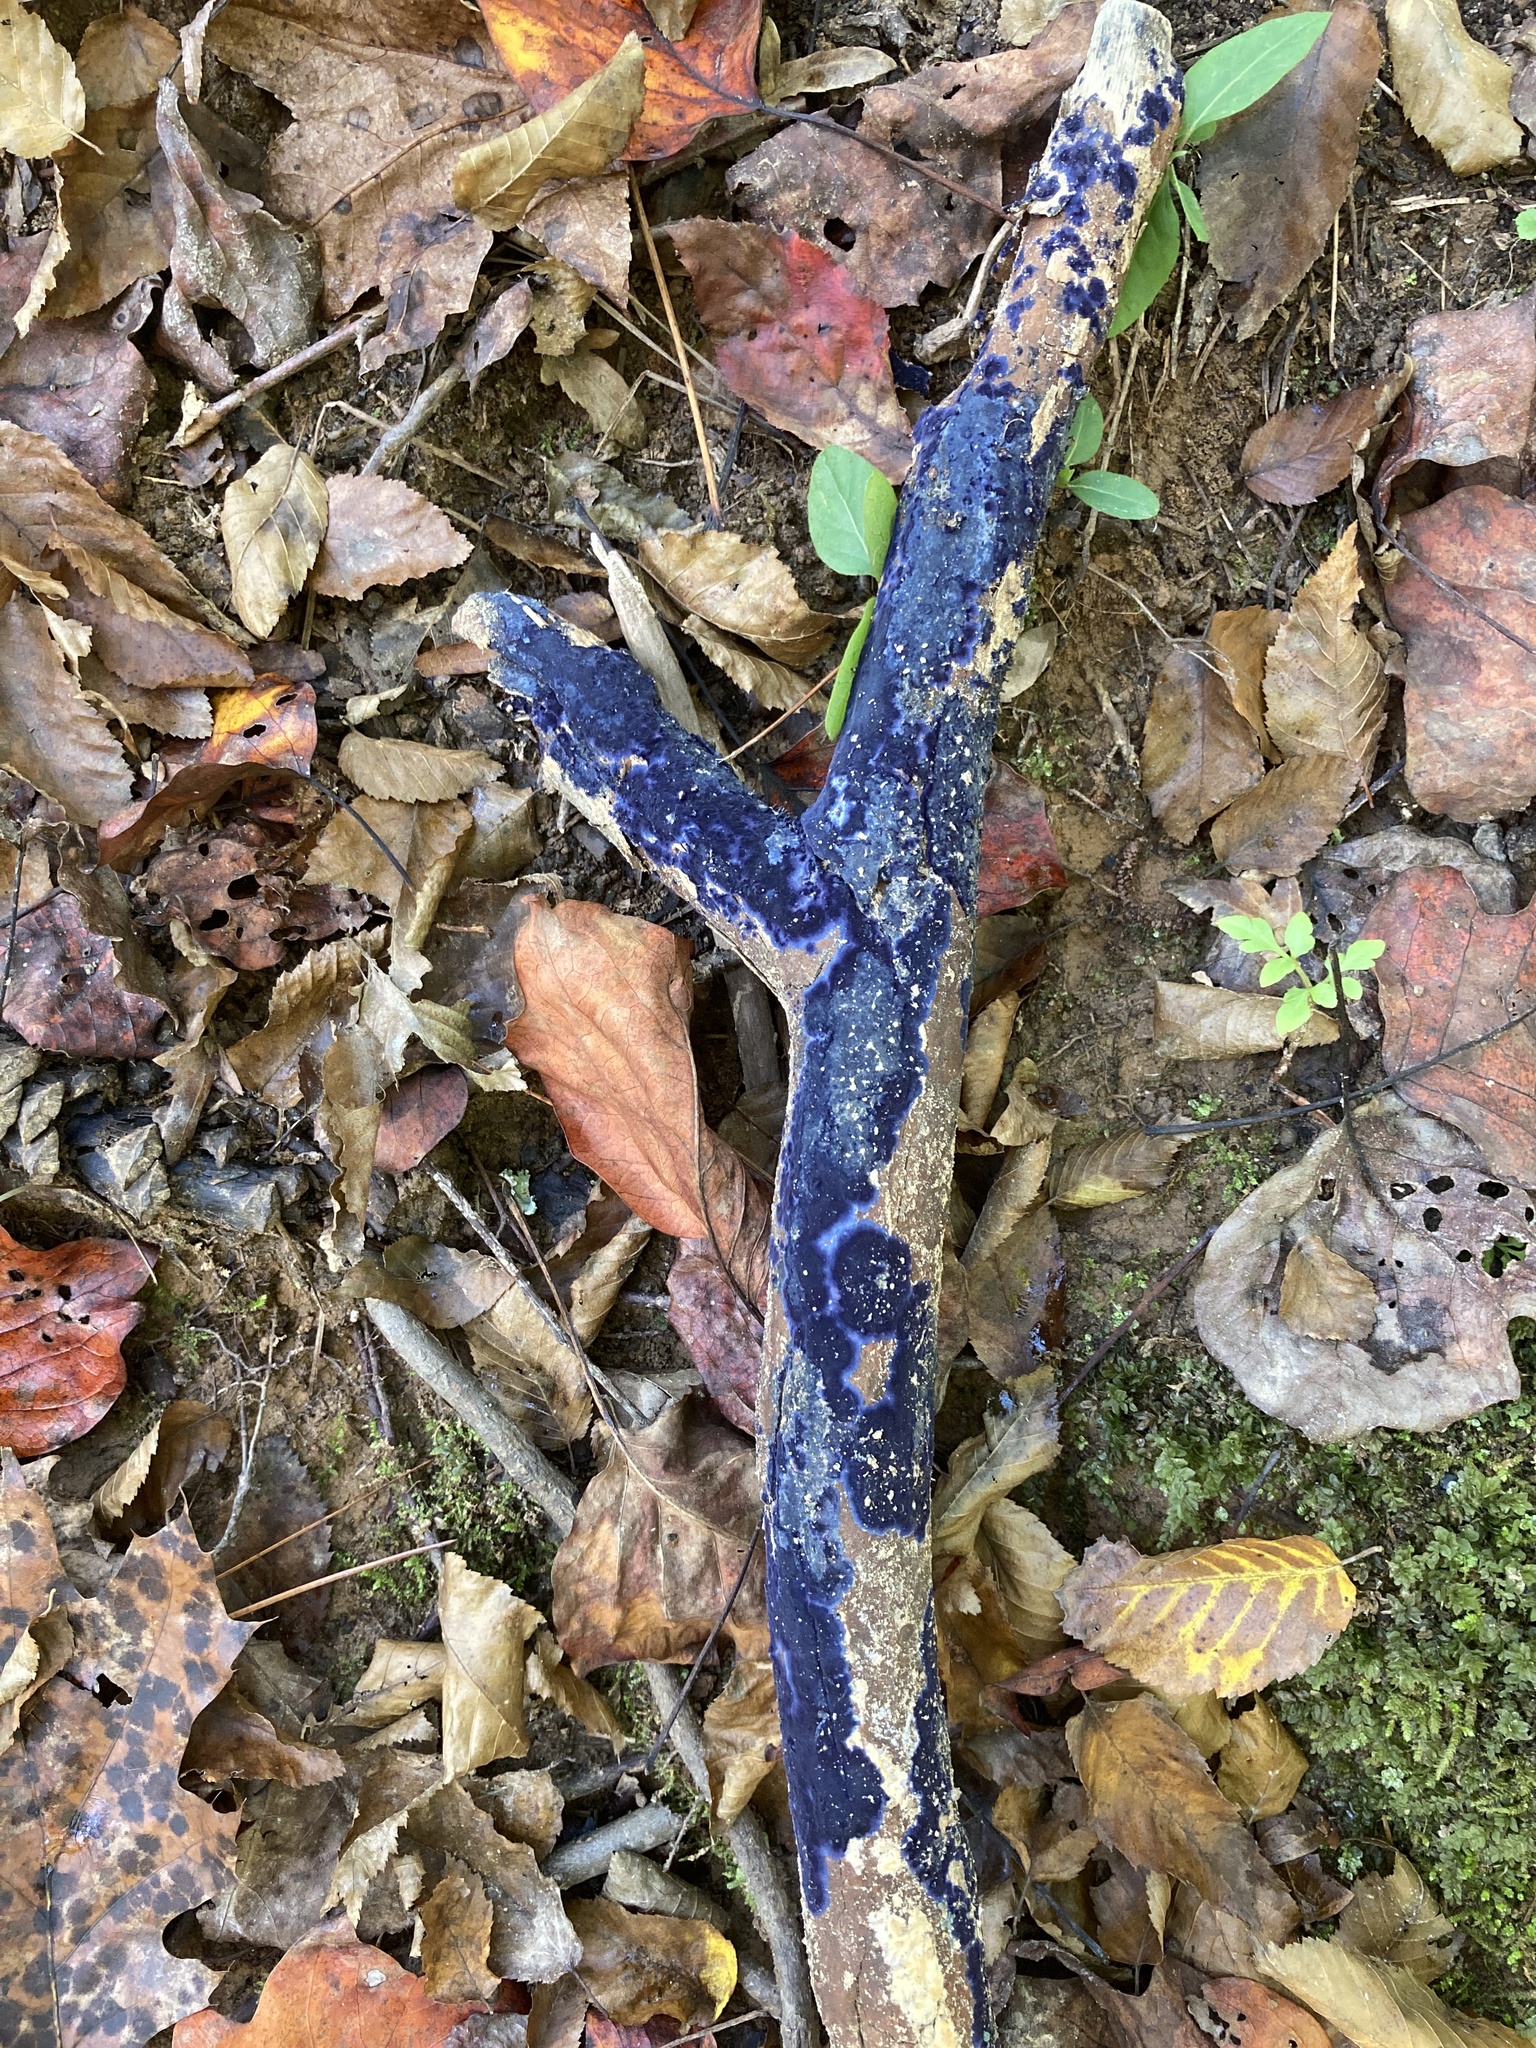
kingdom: Fungi
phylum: Basidiomycota
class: Agaricomycetes
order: Polyporales
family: Phanerochaetaceae
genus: Terana
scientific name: Terana coerulea
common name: Cobalt crust
